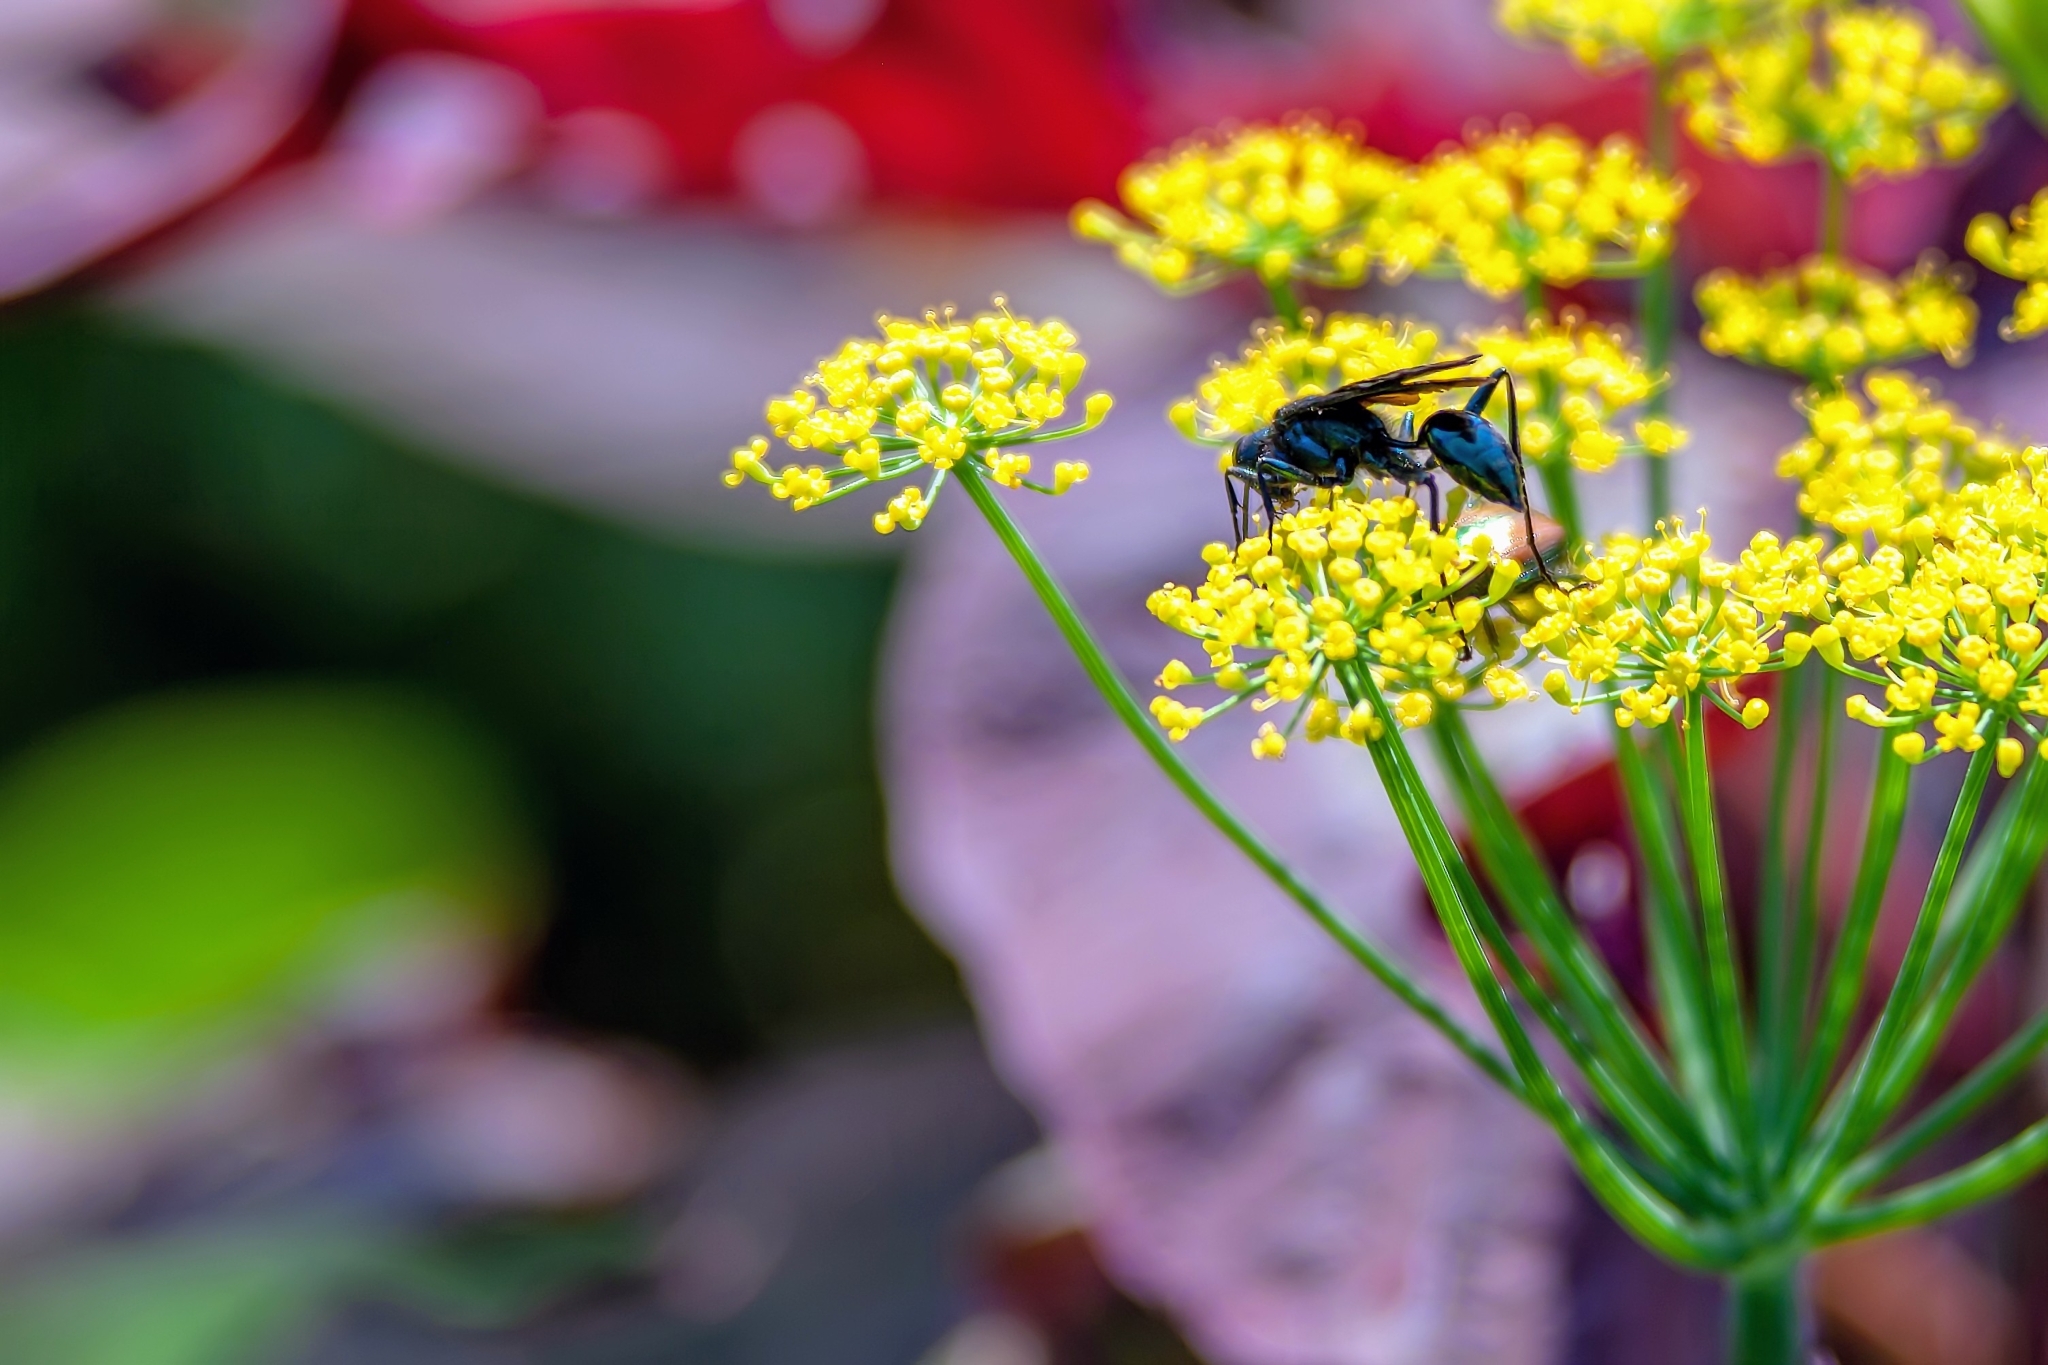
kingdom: Animalia
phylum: Arthropoda
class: Insecta
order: Hymenoptera
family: Sphecidae
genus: Chalybion
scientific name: Chalybion californicum
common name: Mud dauber
